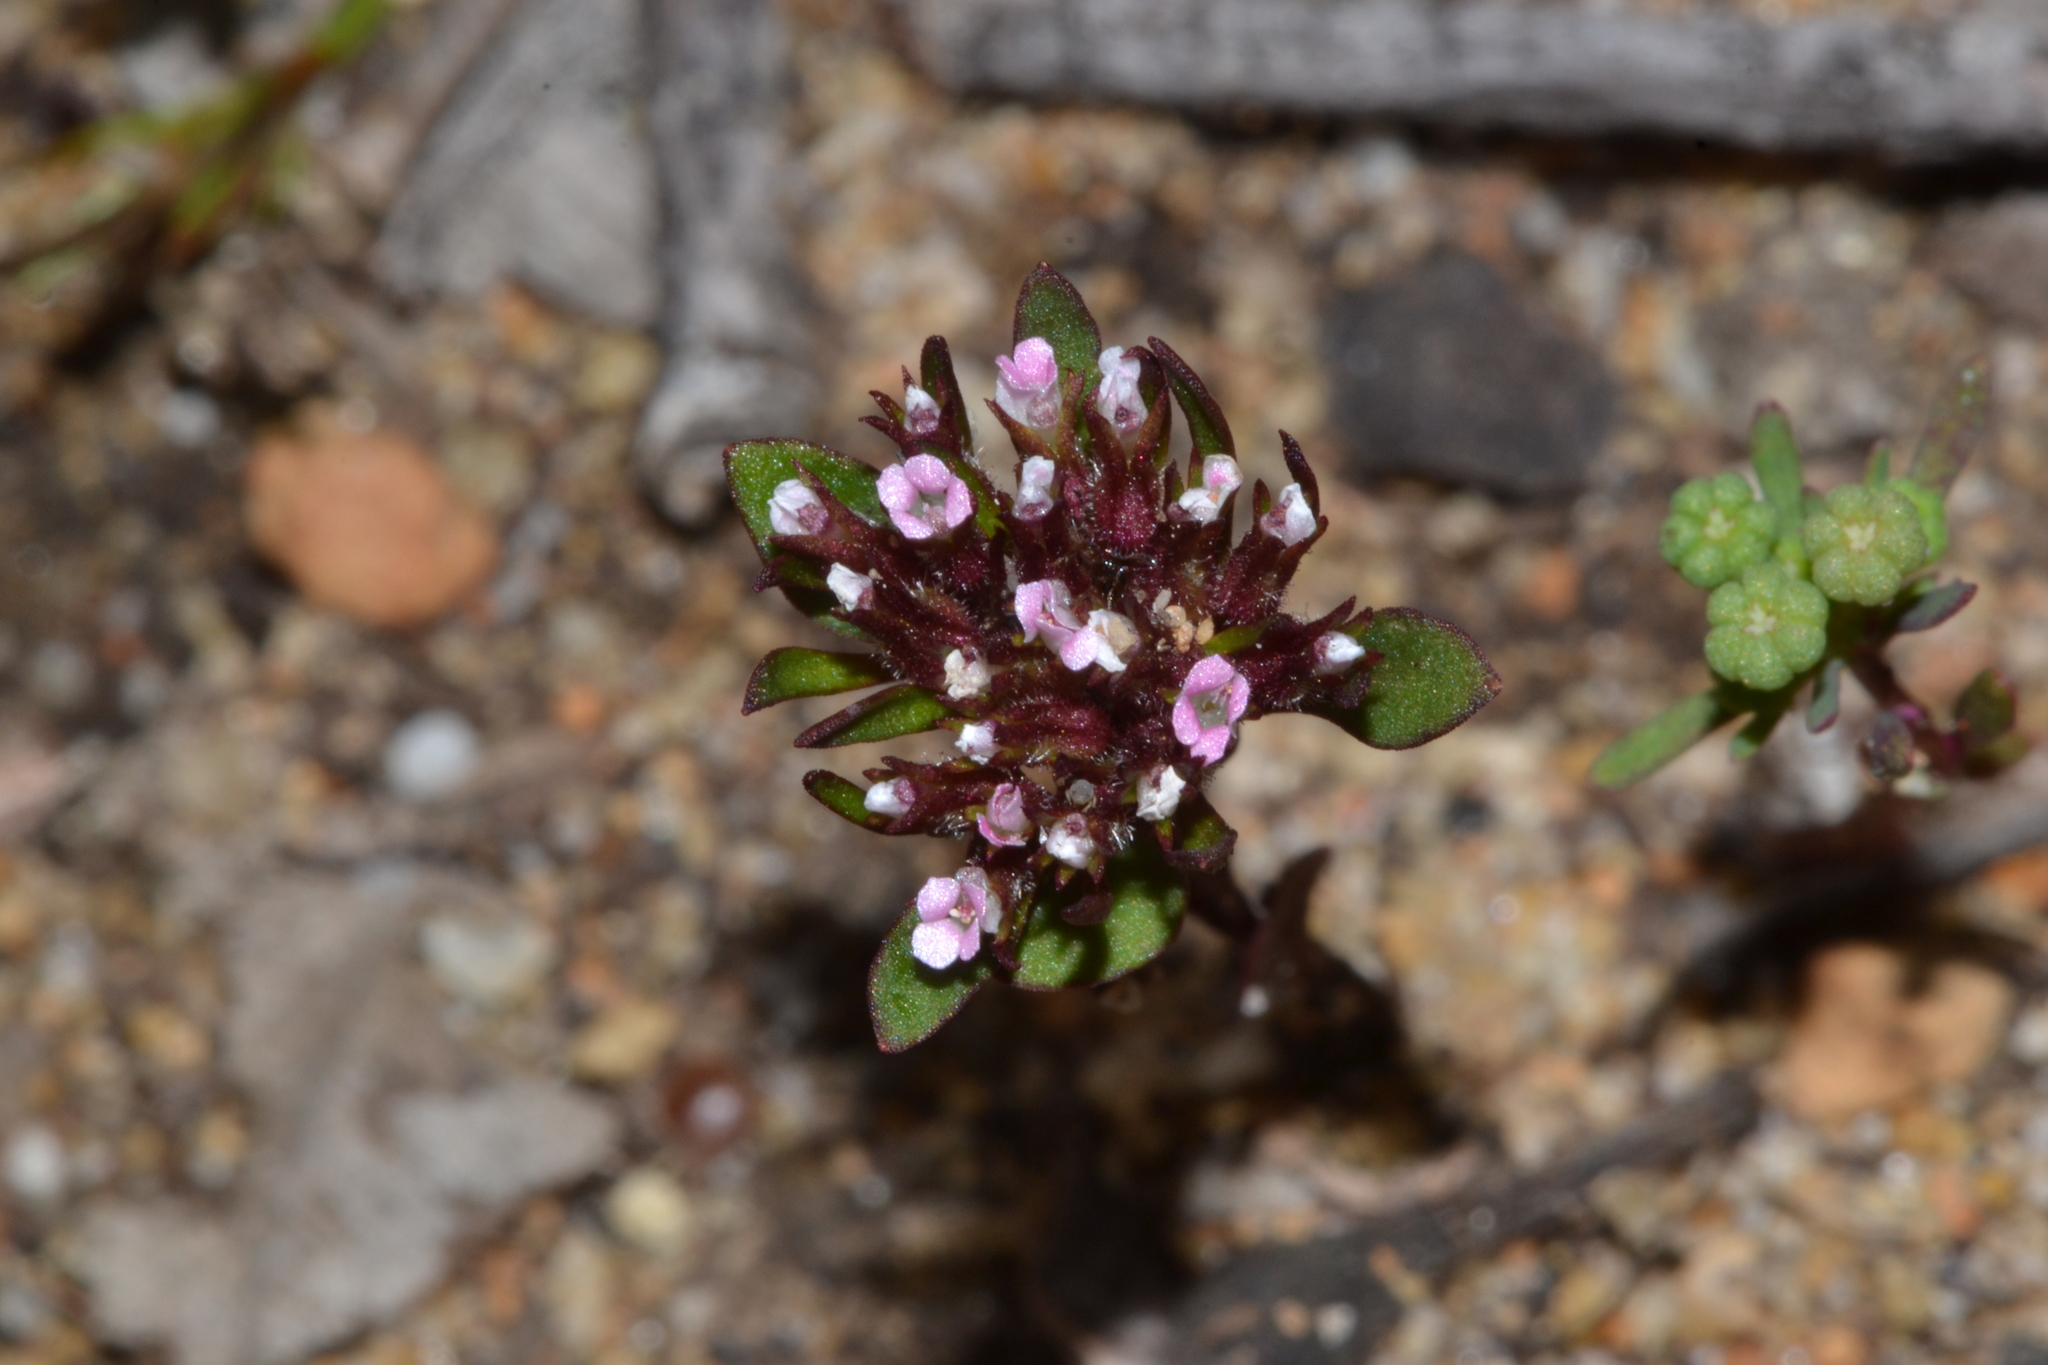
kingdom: Plantae
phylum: Tracheophyta
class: Magnoliopsida
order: Asterales
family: Stylidiaceae
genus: Levenhookia
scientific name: Levenhookia pusilla
